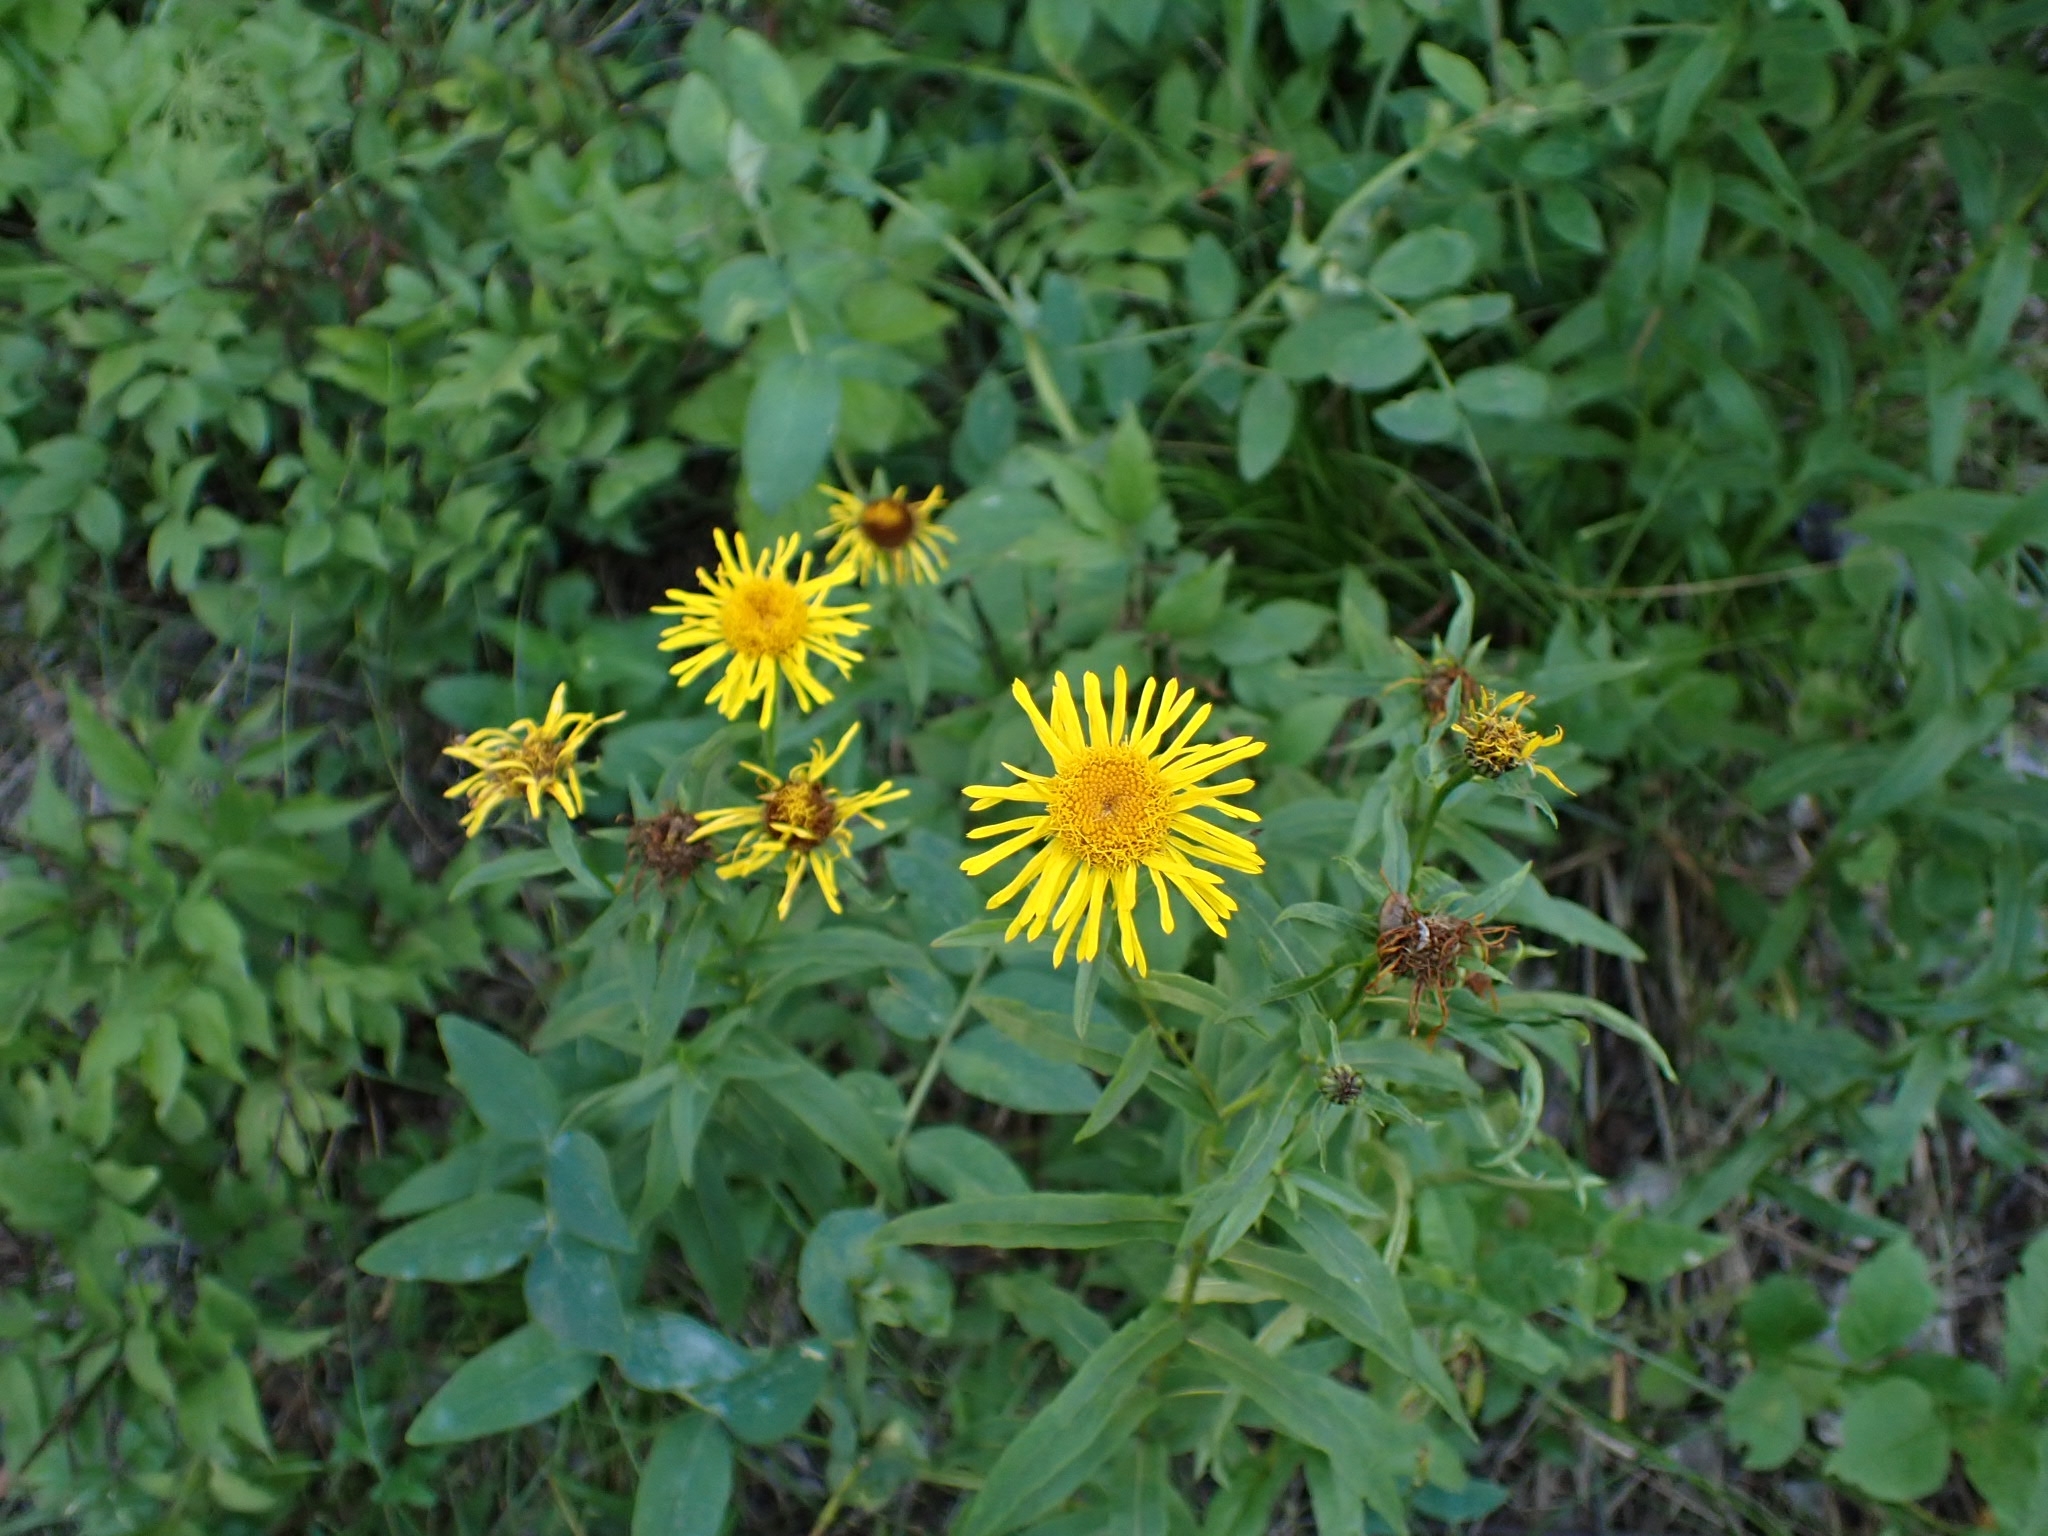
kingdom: Plantae
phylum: Tracheophyta
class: Magnoliopsida
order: Asterales
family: Asteraceae
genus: Pentanema
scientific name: Pentanema salicinum
